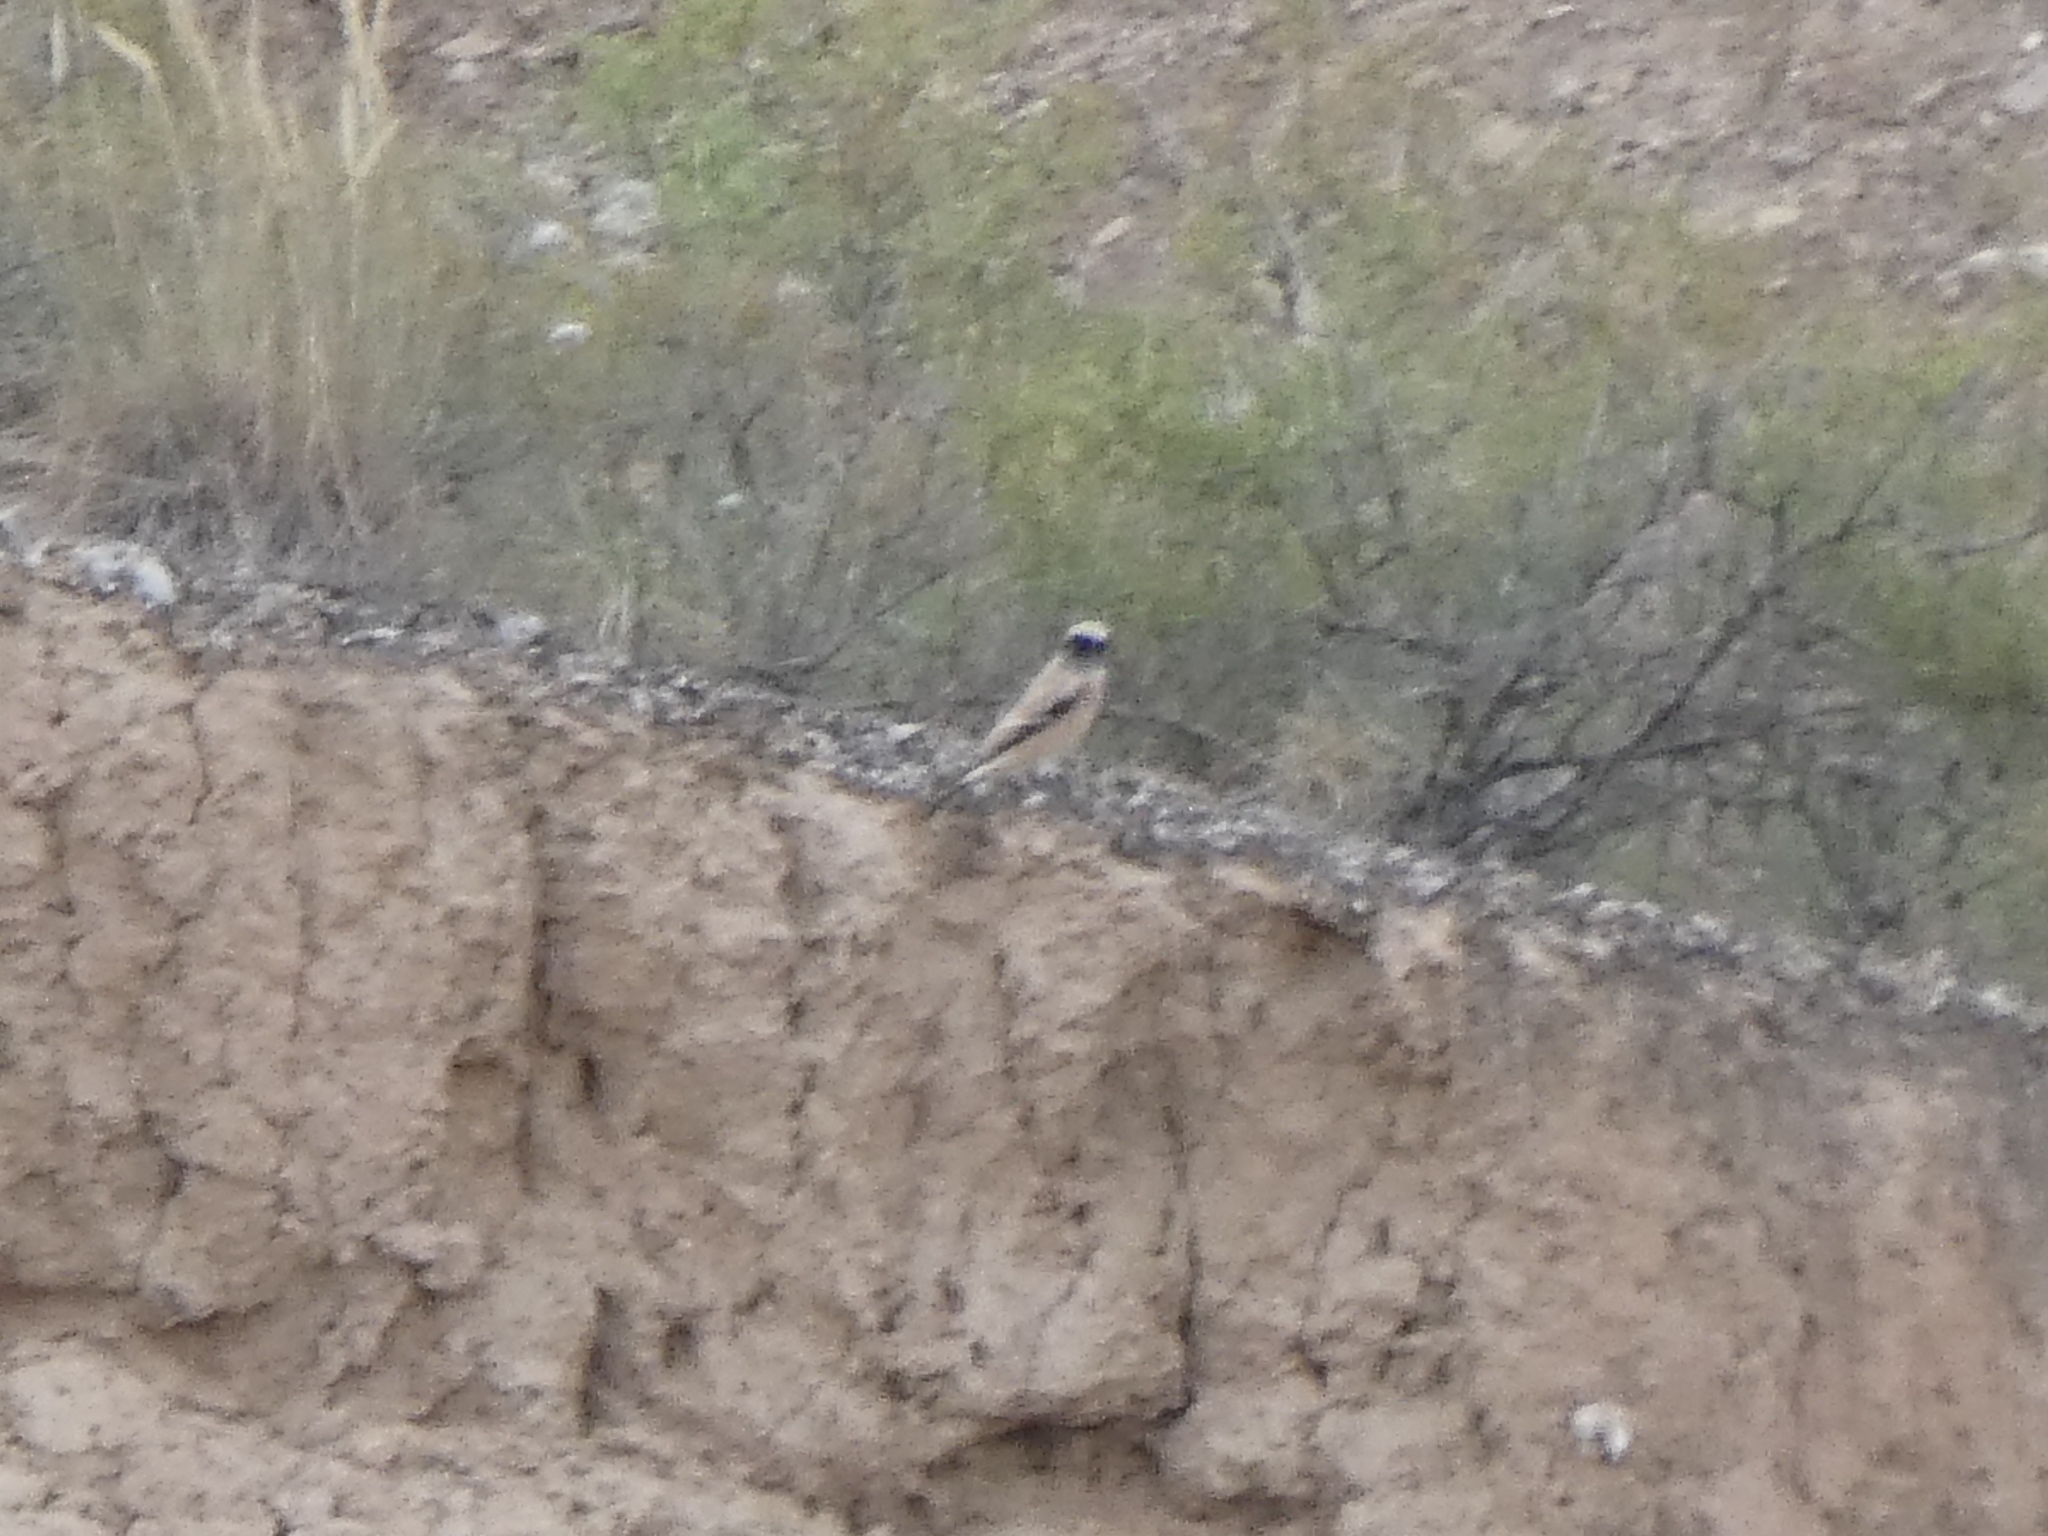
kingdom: Animalia
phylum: Chordata
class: Aves
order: Passeriformes
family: Muscicapidae
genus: Oenanthe
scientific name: Oenanthe deserti
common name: Desert wheatear
